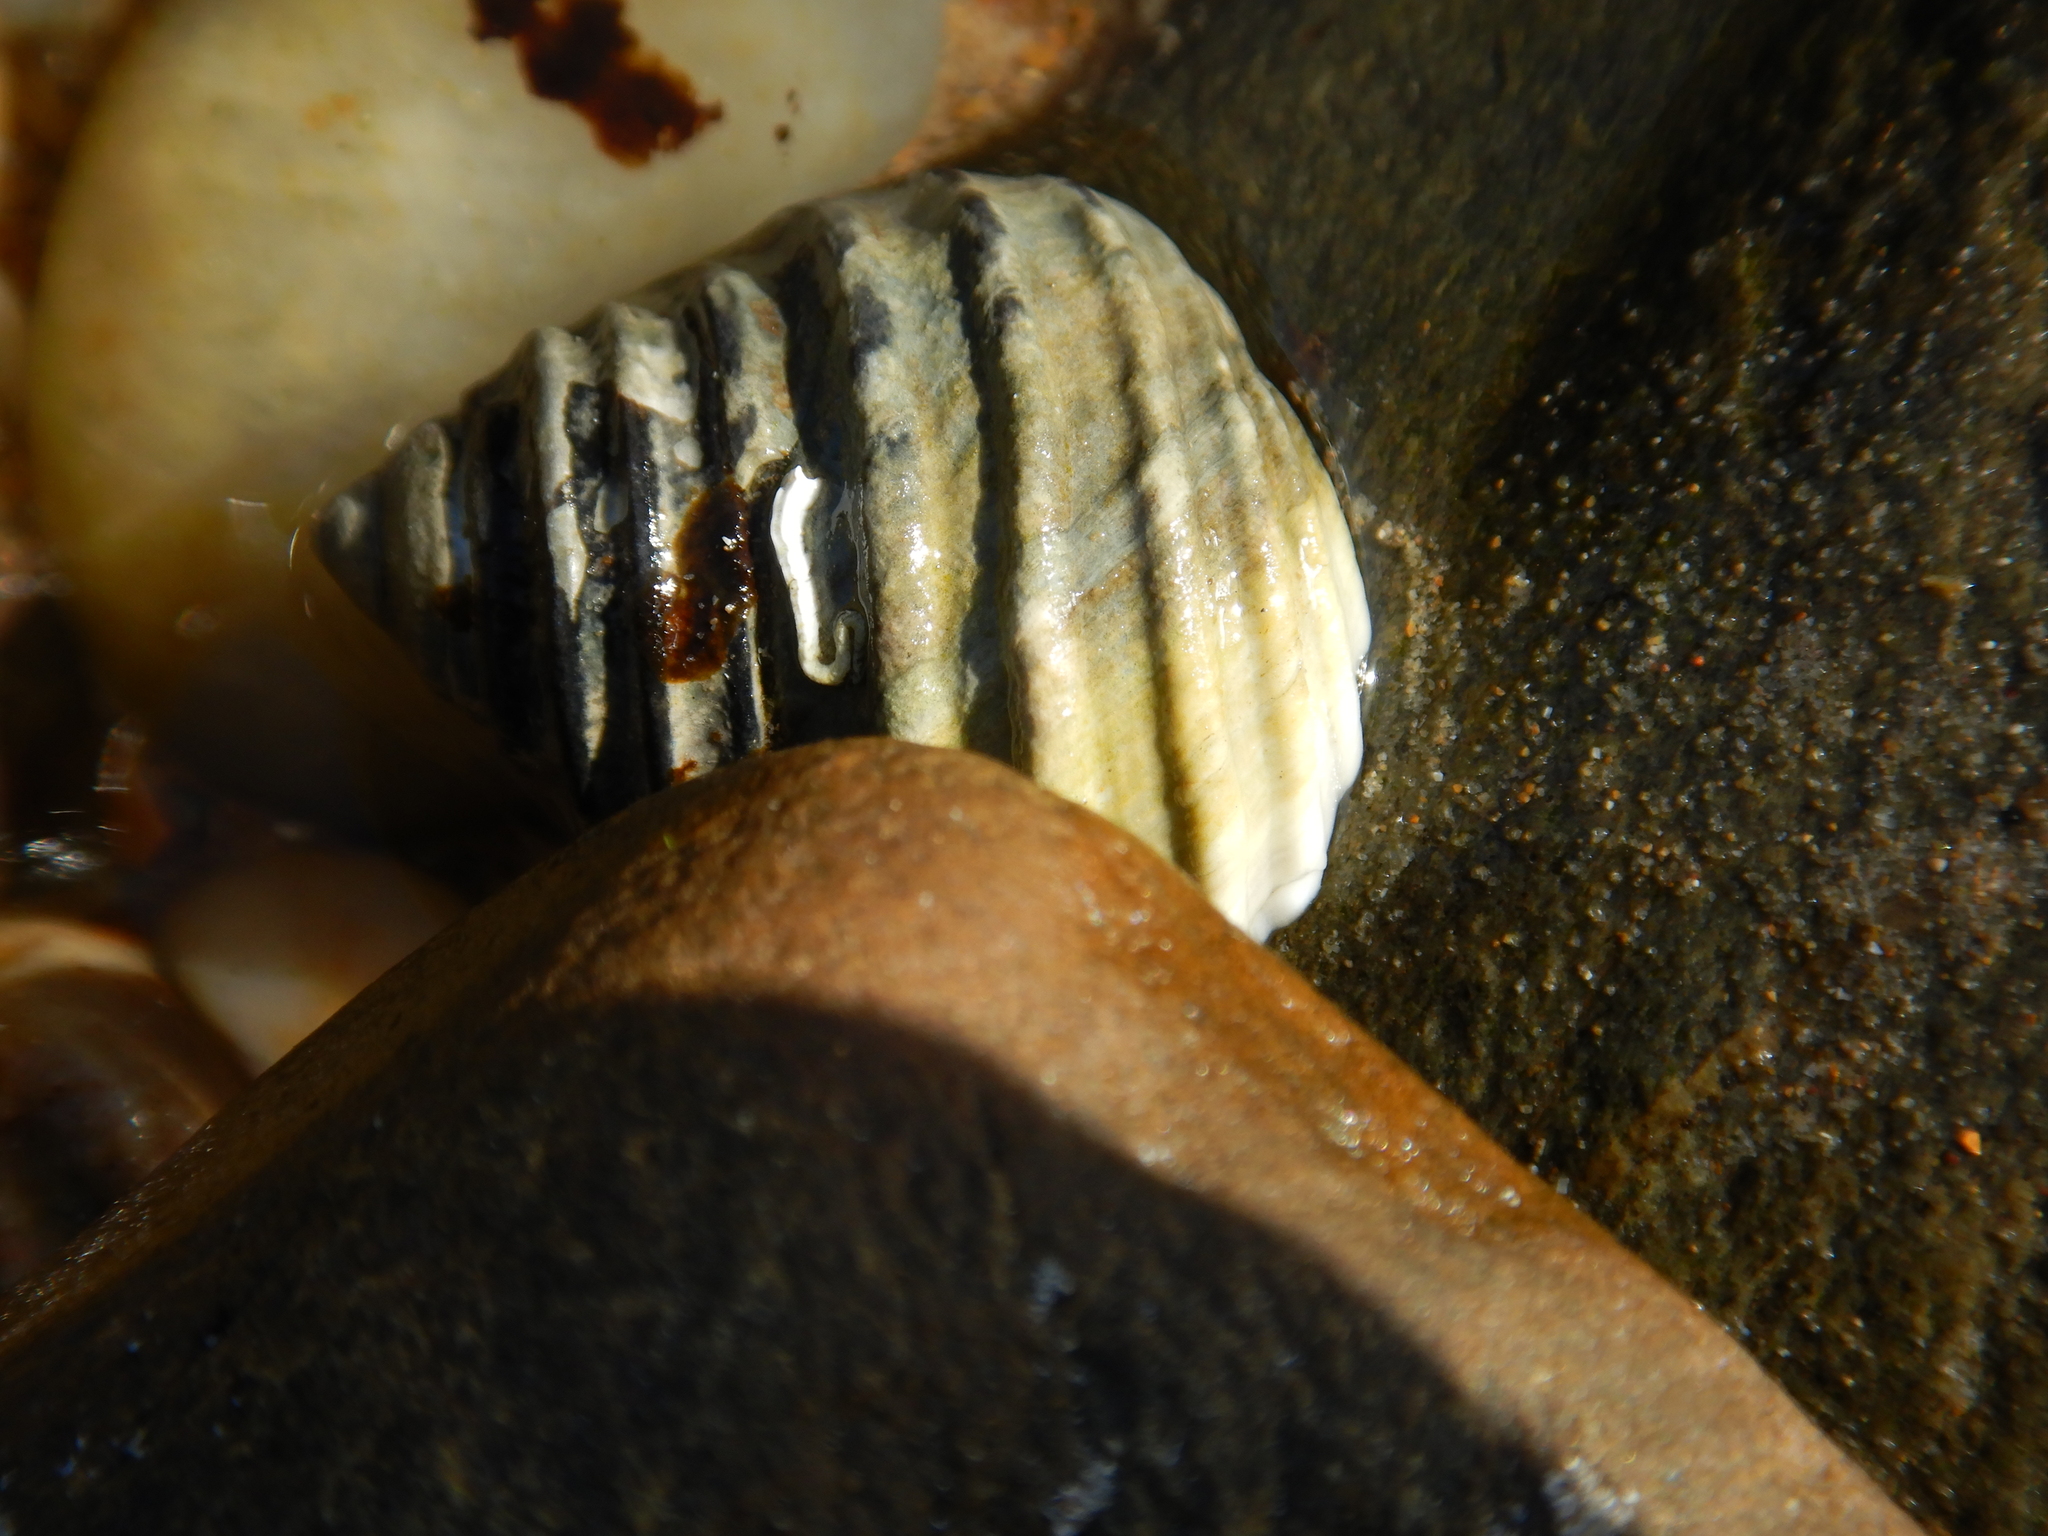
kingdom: Animalia
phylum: Mollusca
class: Gastropoda
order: Trochida
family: Trochidae
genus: Austrocochlea
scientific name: Austrocochlea constricta
